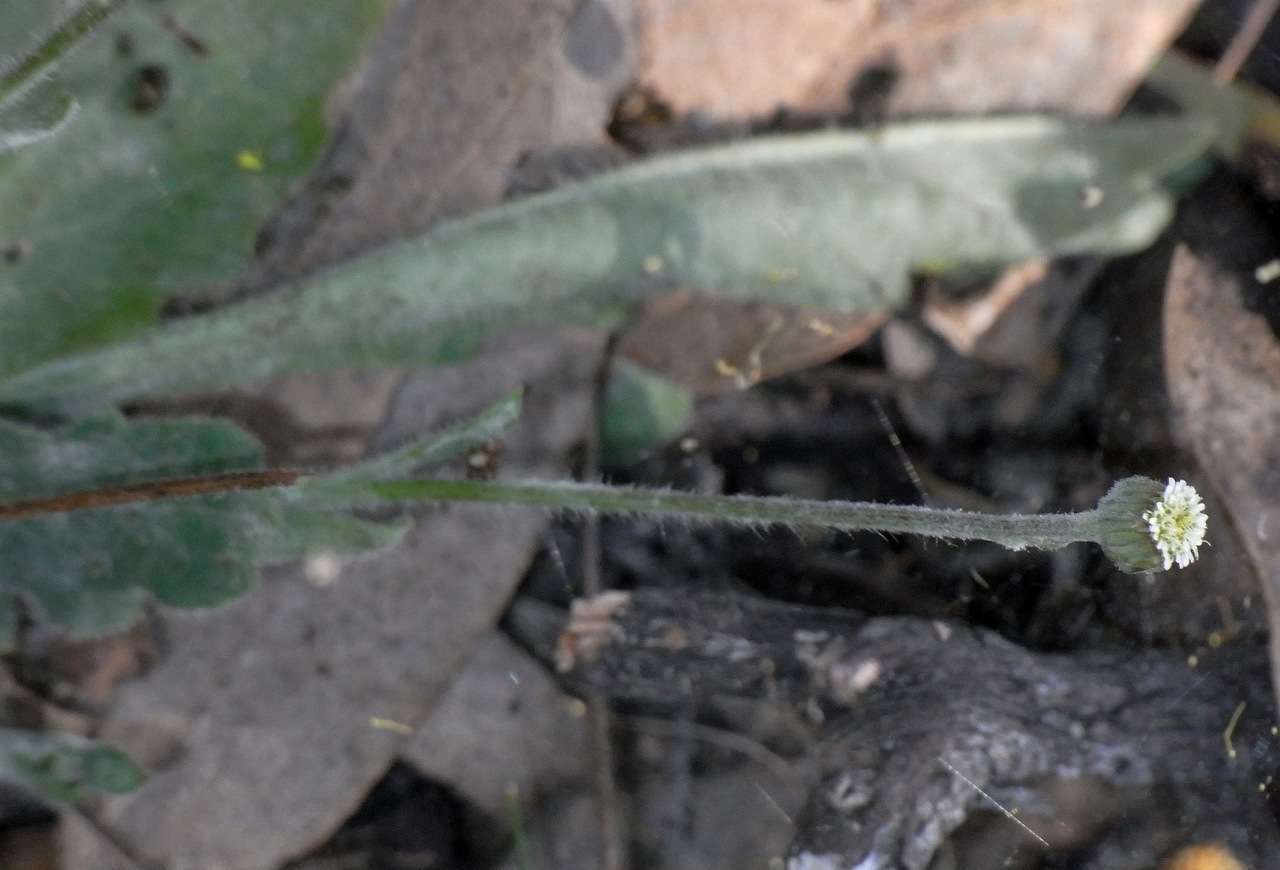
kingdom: Plantae
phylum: Tracheophyta
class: Magnoliopsida
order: Asterales
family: Asteraceae
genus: Lagenophora
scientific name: Lagenophora huegelii
